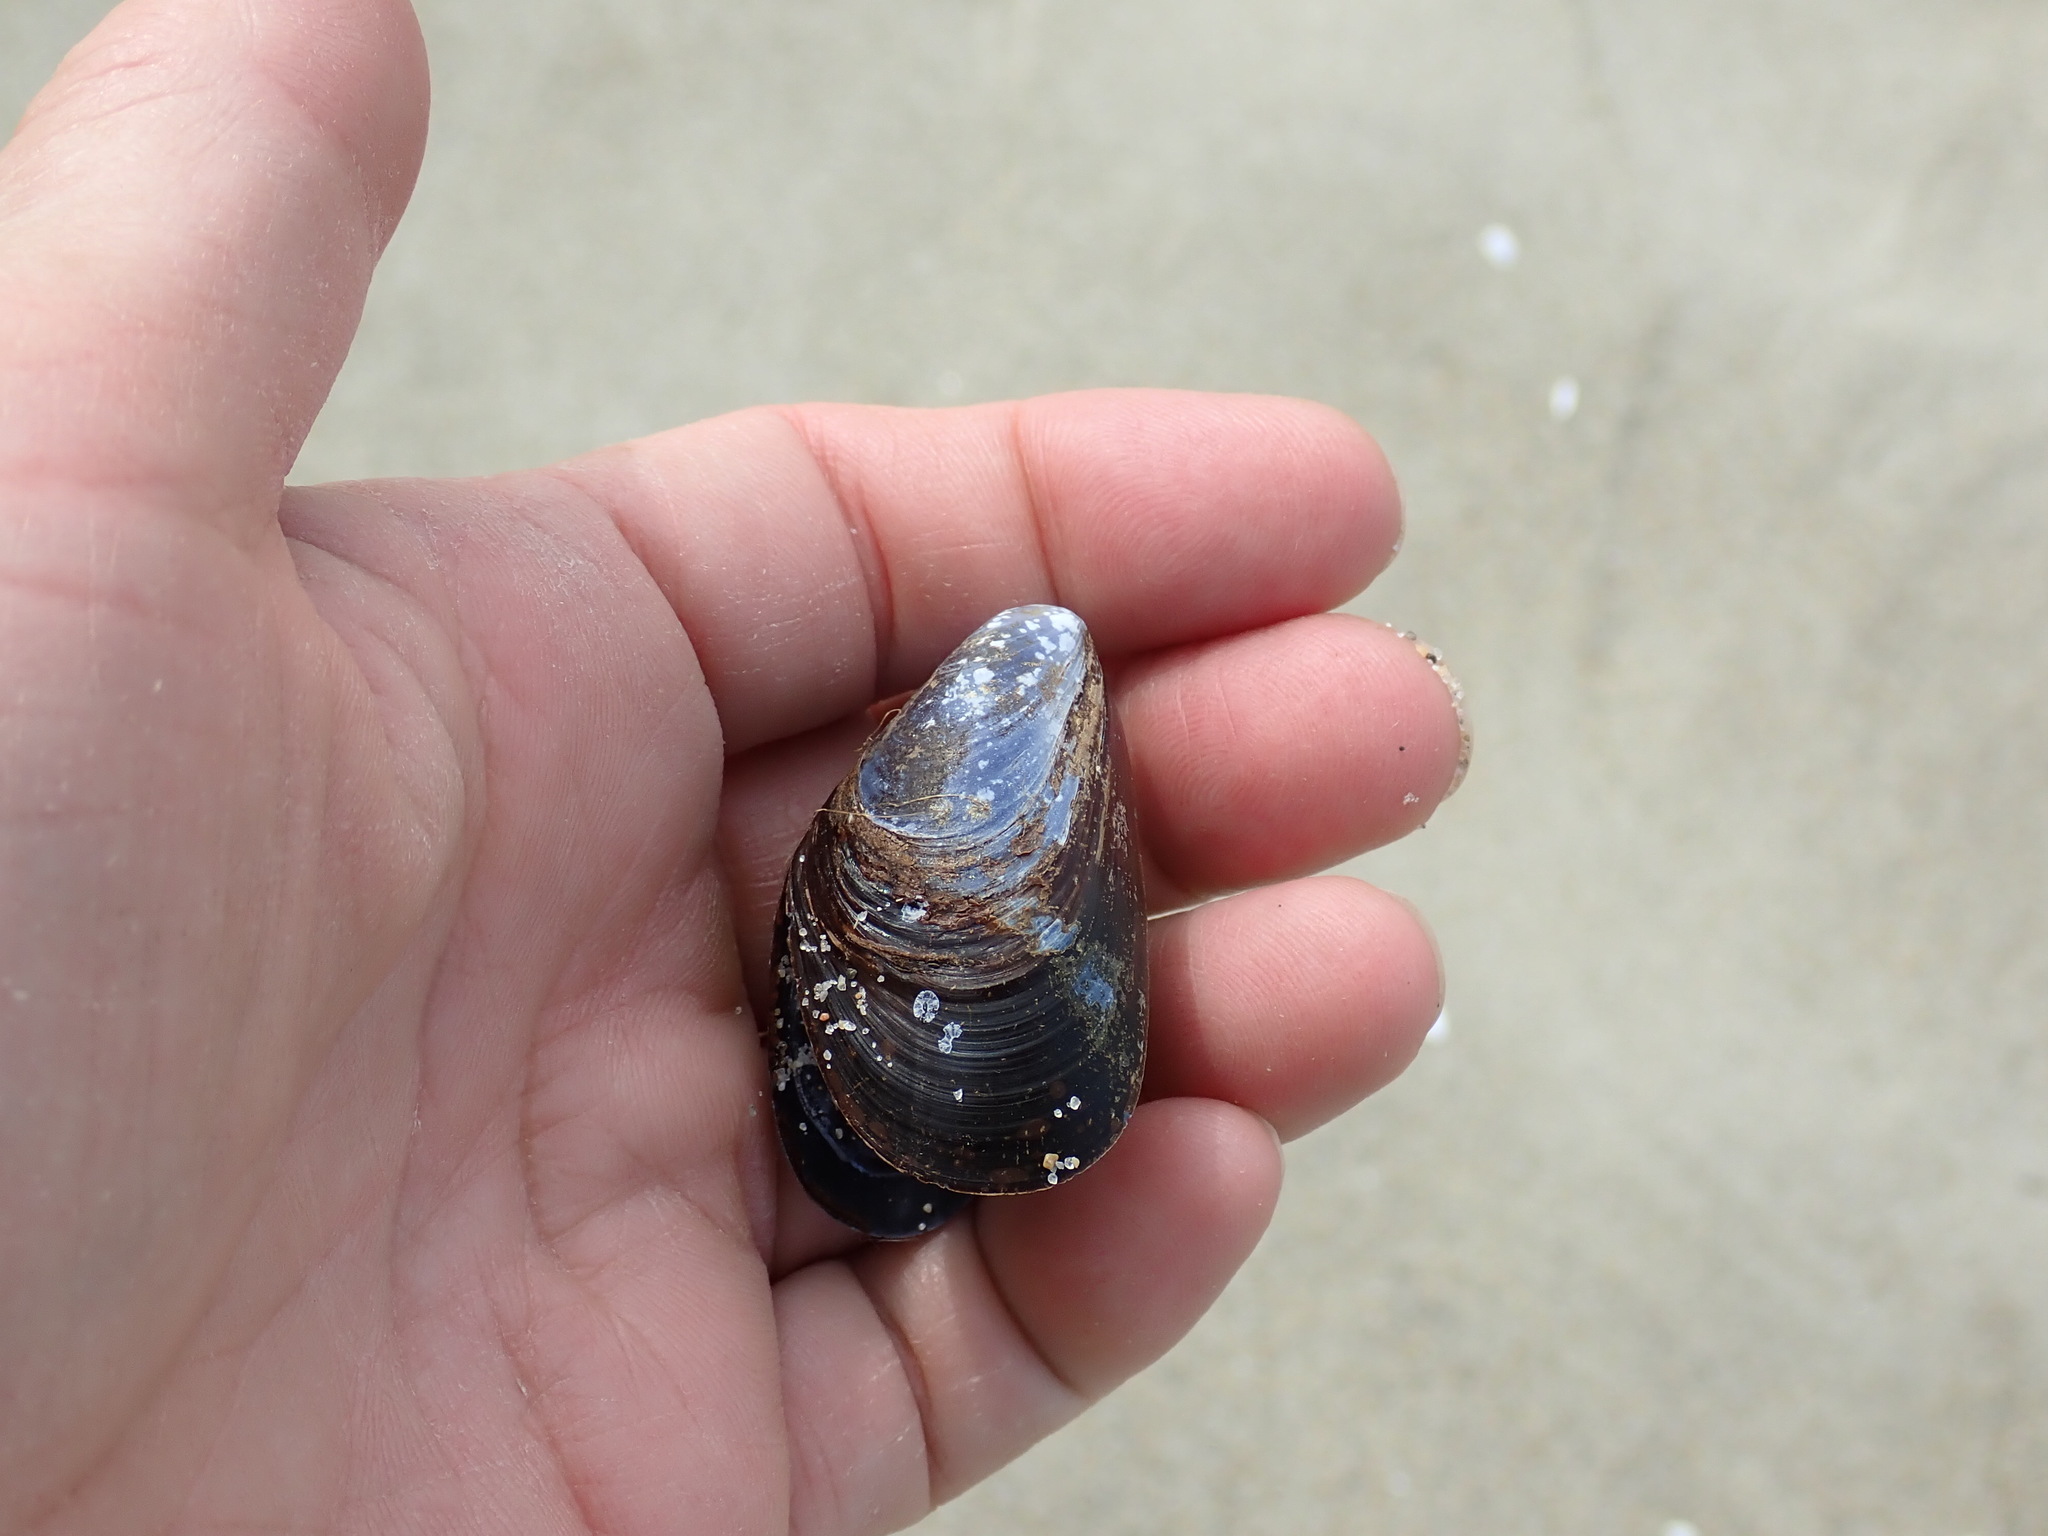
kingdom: Animalia
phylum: Mollusca
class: Bivalvia
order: Mytilida
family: Mytilidae
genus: Mytilus
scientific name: Mytilus edulis
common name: Blue mussel
